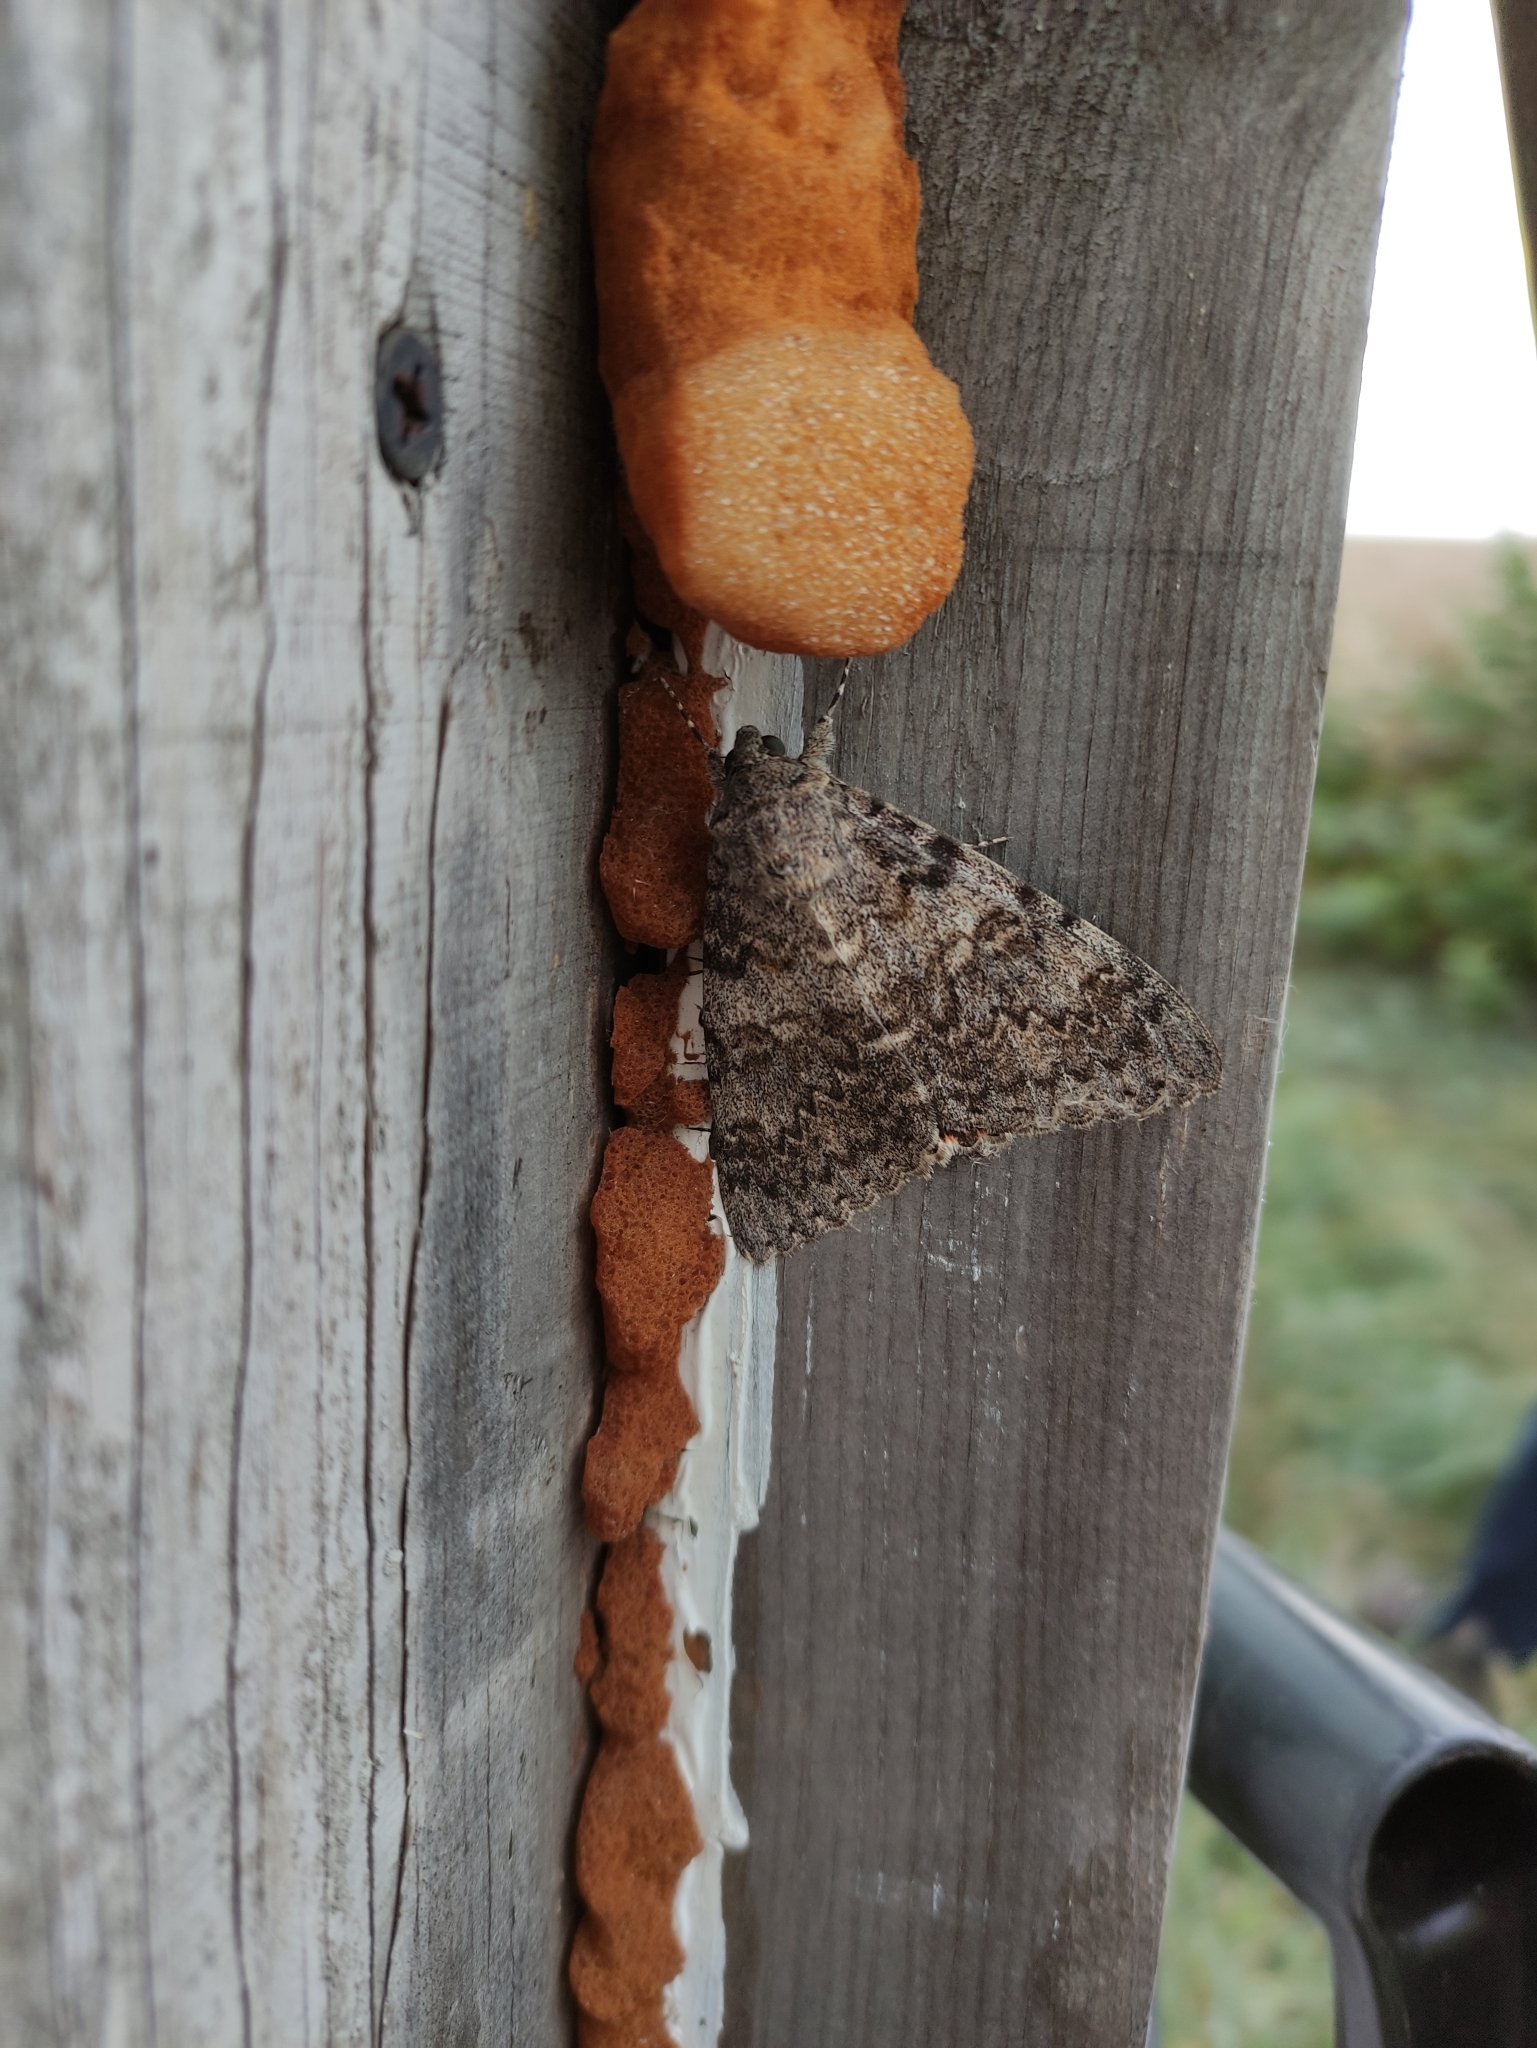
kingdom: Animalia
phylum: Arthropoda
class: Insecta
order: Lepidoptera
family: Erebidae
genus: Catocala
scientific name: Catocala elocata
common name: French red underwing
